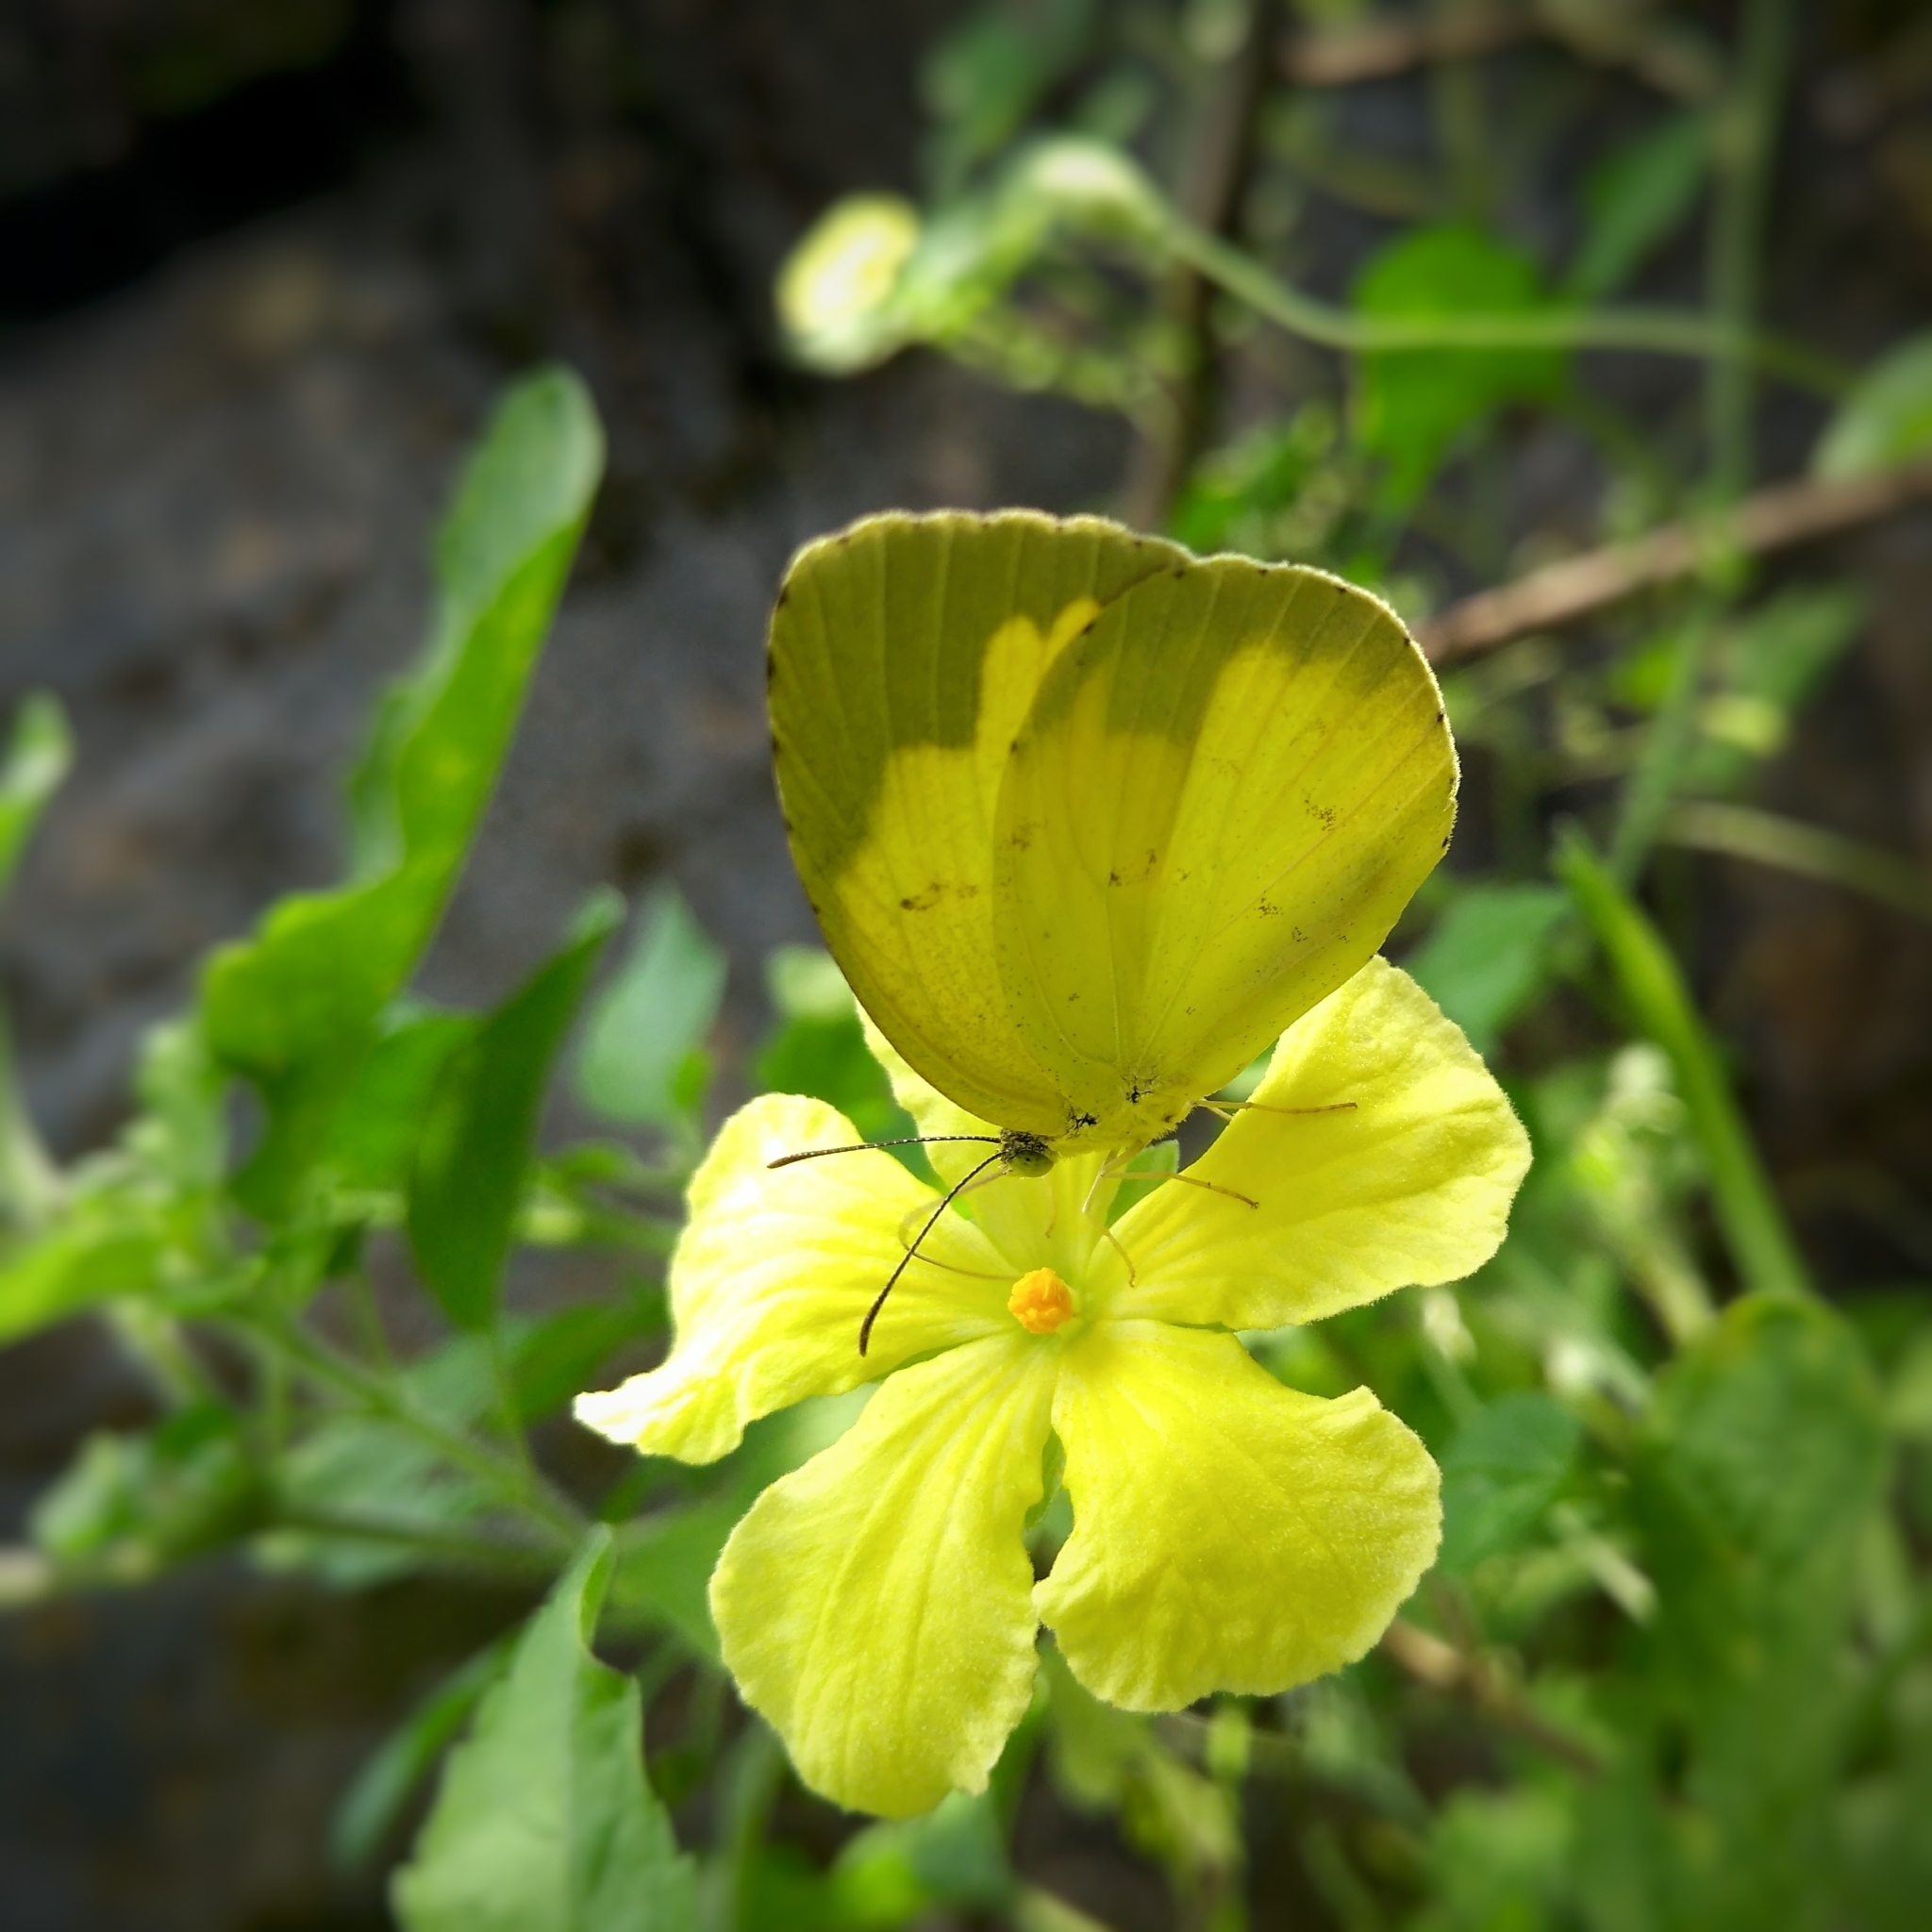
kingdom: Animalia
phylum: Arthropoda
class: Insecta
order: Lepidoptera
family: Pieridae
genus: Eurema
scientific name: Eurema hecabe
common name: Pale grass yellow
